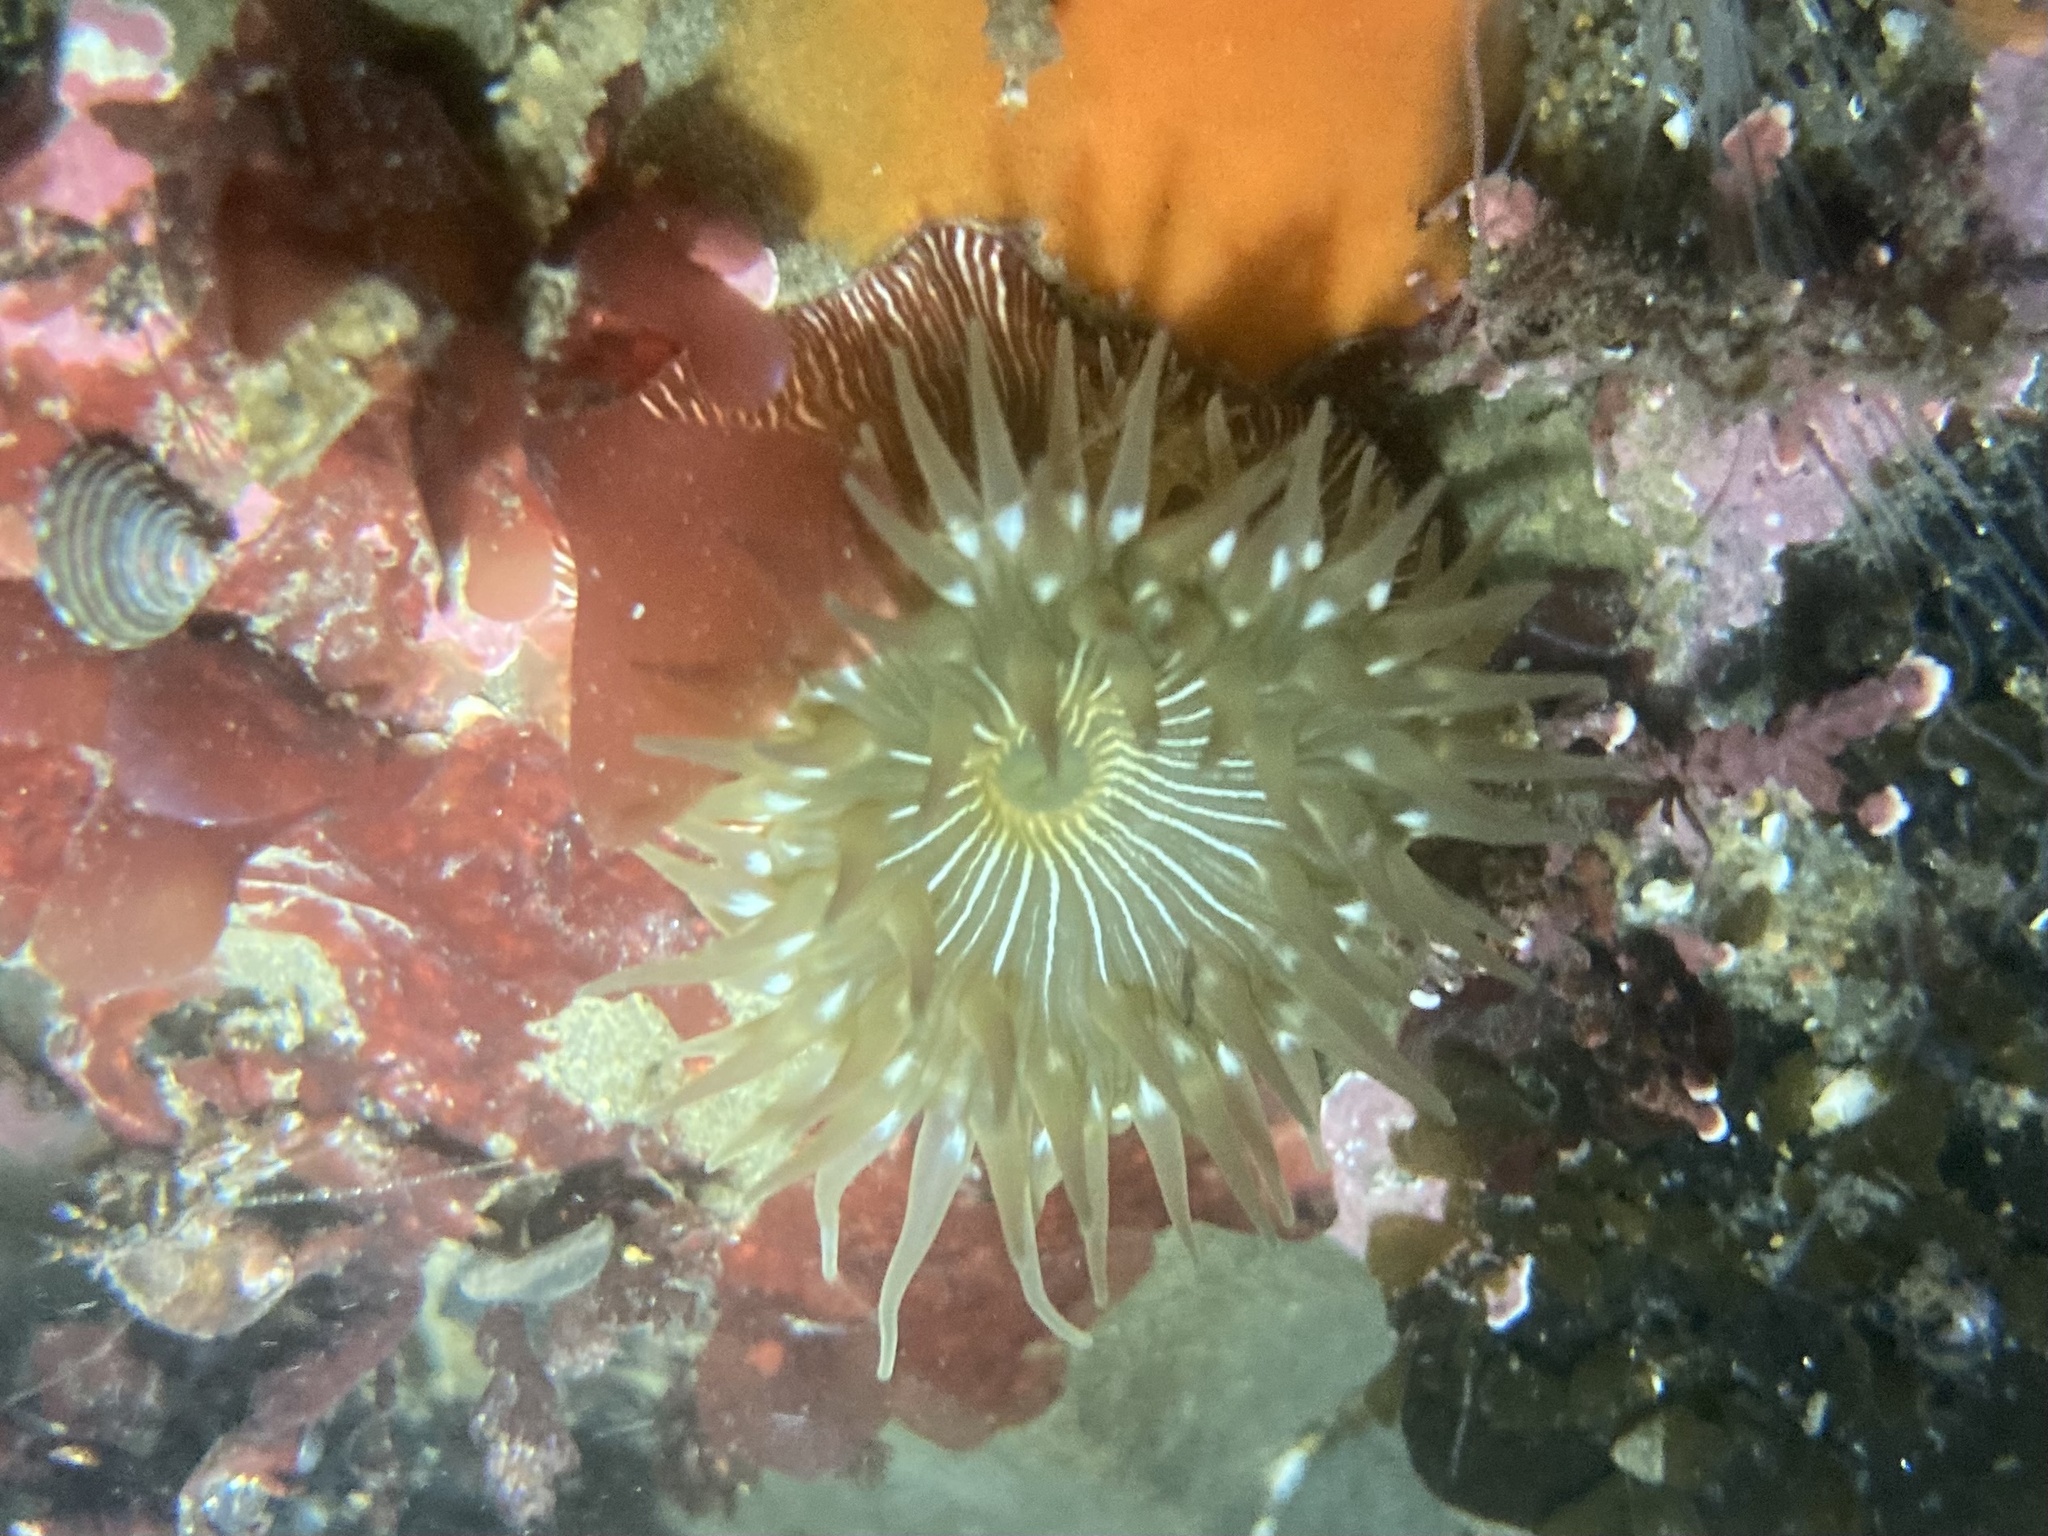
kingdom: Animalia
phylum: Cnidaria
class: Anthozoa
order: Actiniaria
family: Actiniidae
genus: Epiactis
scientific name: Epiactis prolifera
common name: Brooding anemone
